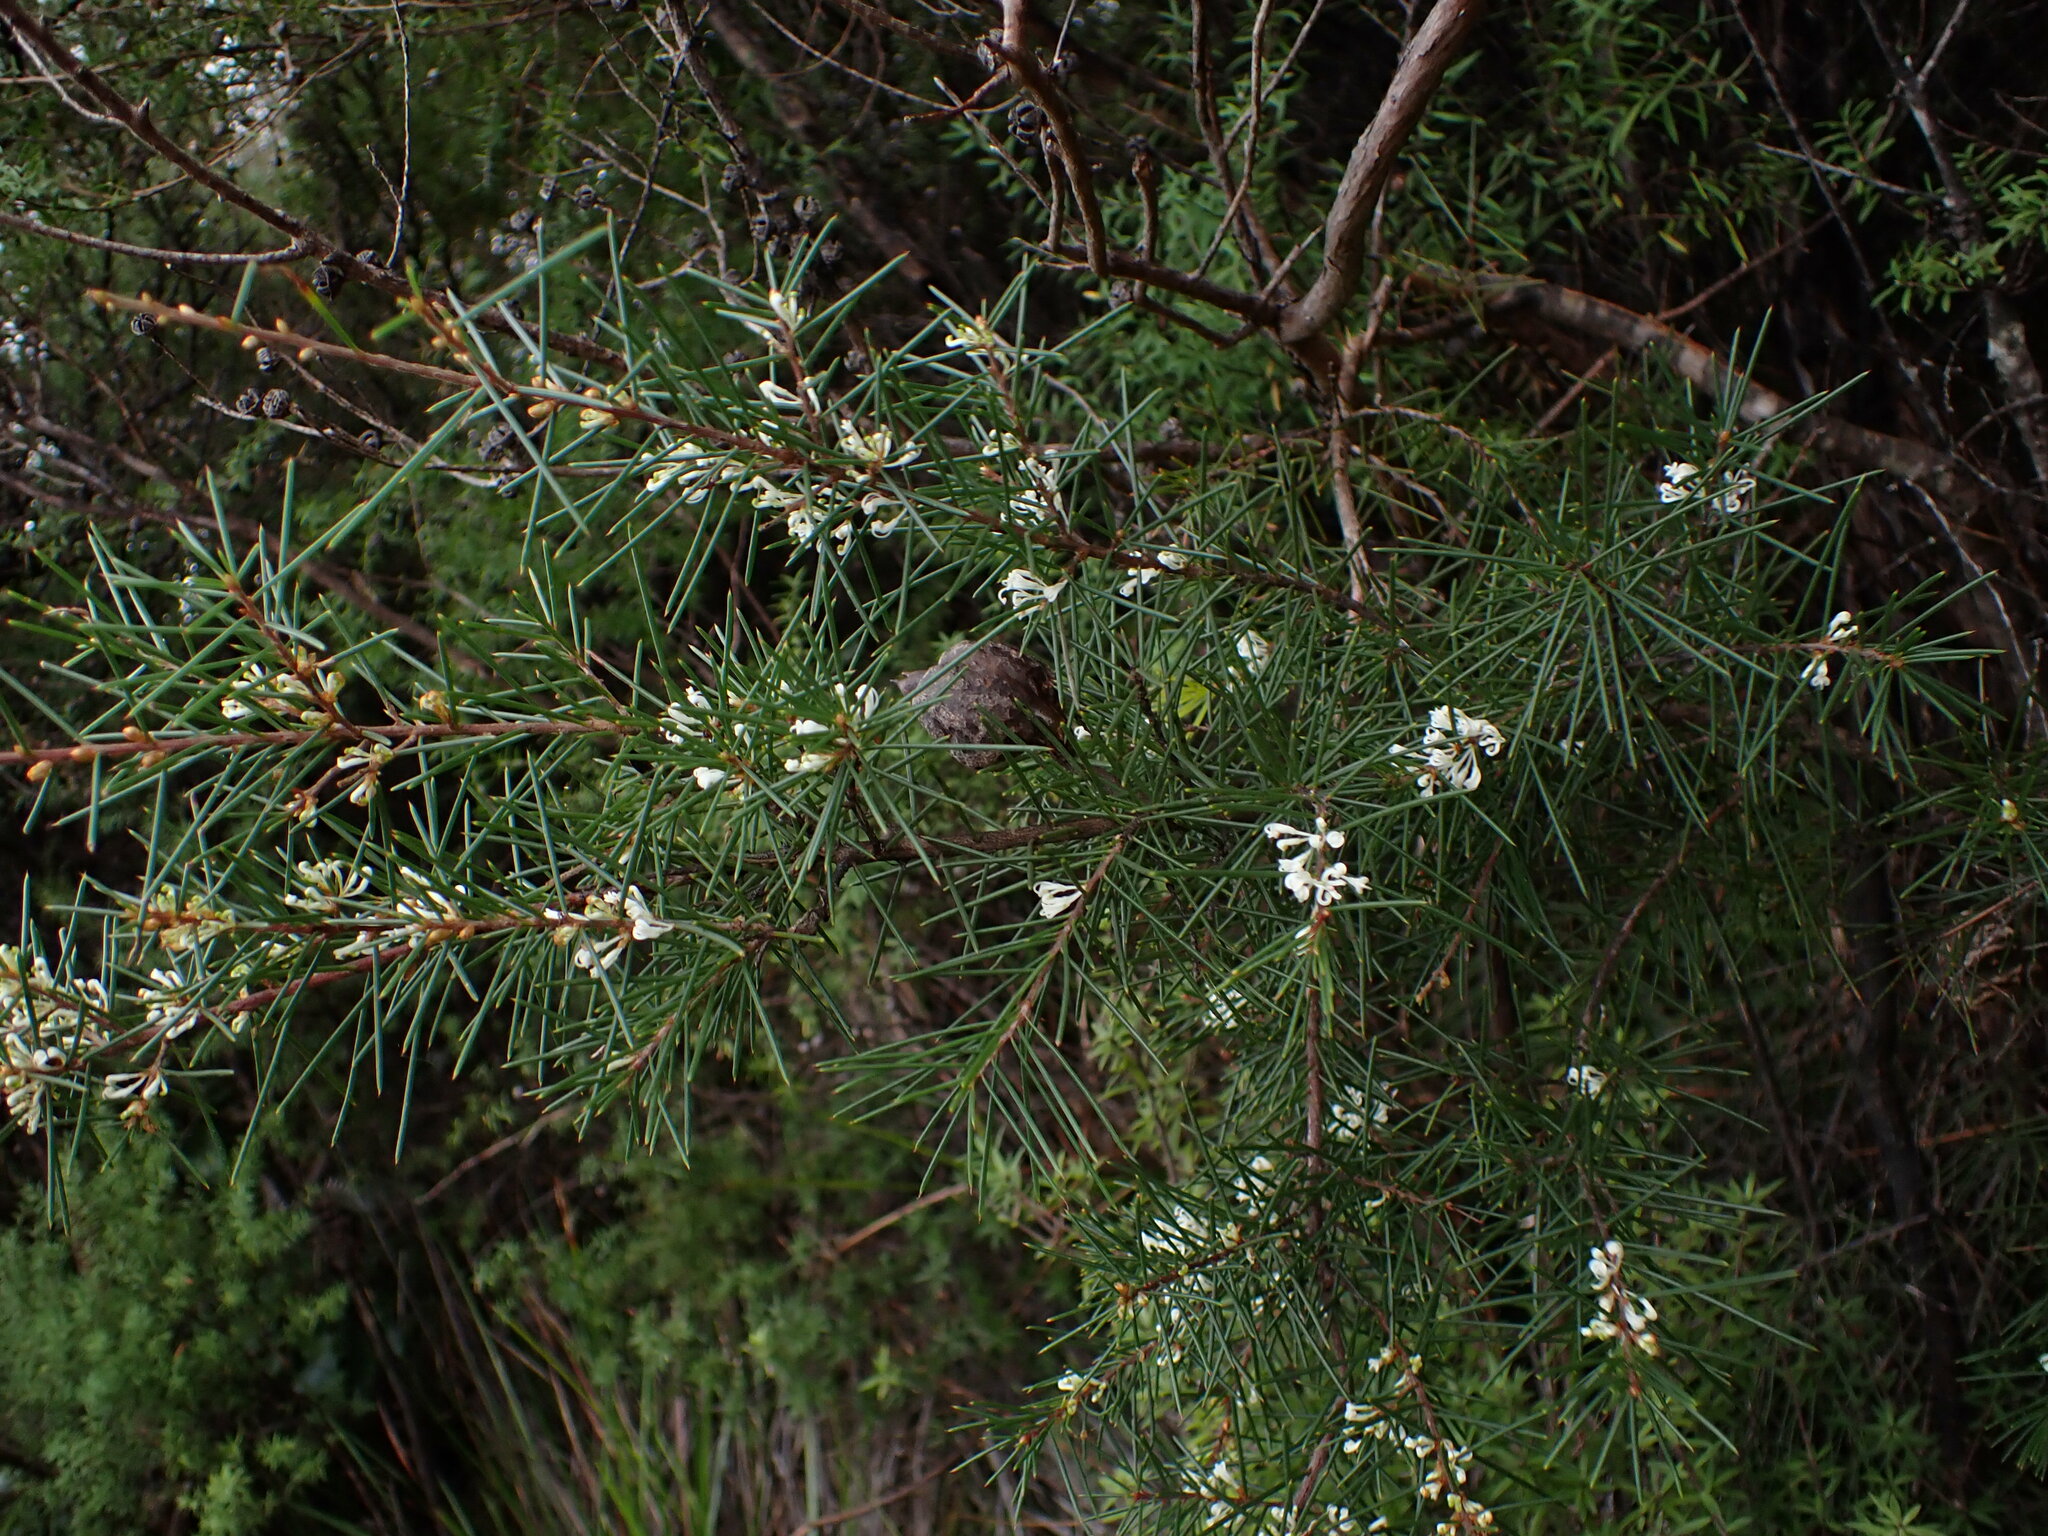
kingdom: Plantae
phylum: Tracheophyta
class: Magnoliopsida
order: Proteales
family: Proteaceae
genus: Hakea
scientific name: Hakea sericea
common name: Needle bush
